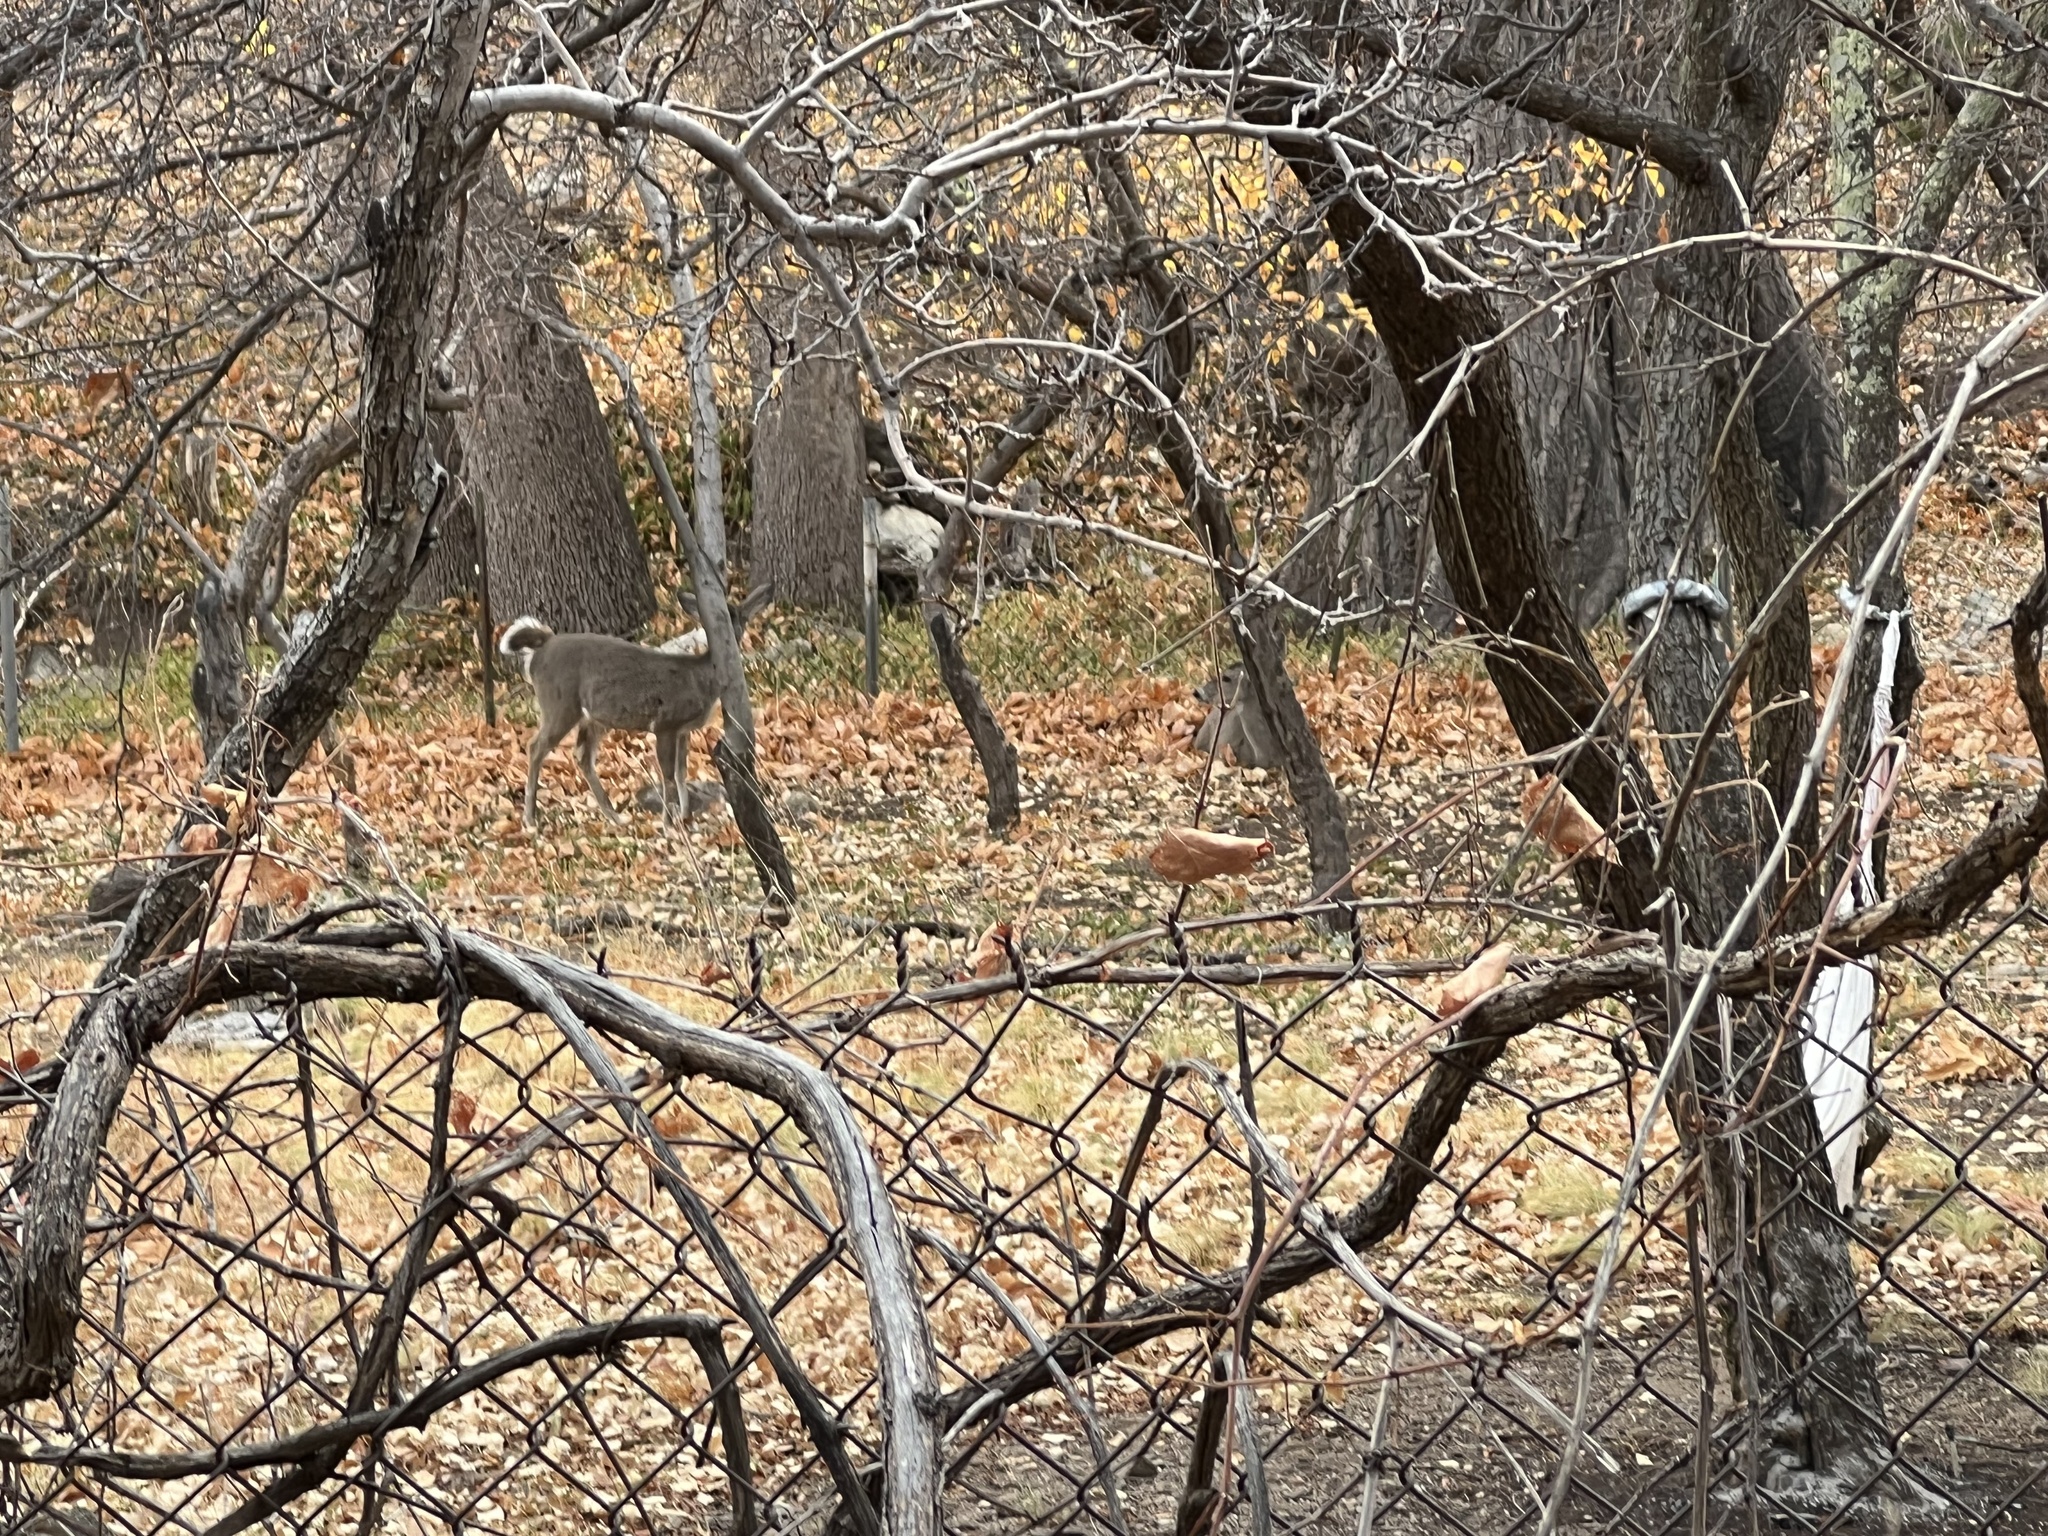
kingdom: Animalia
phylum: Chordata
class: Mammalia
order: Artiodactyla
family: Cervidae
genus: Odocoileus
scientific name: Odocoileus virginianus
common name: White-tailed deer
